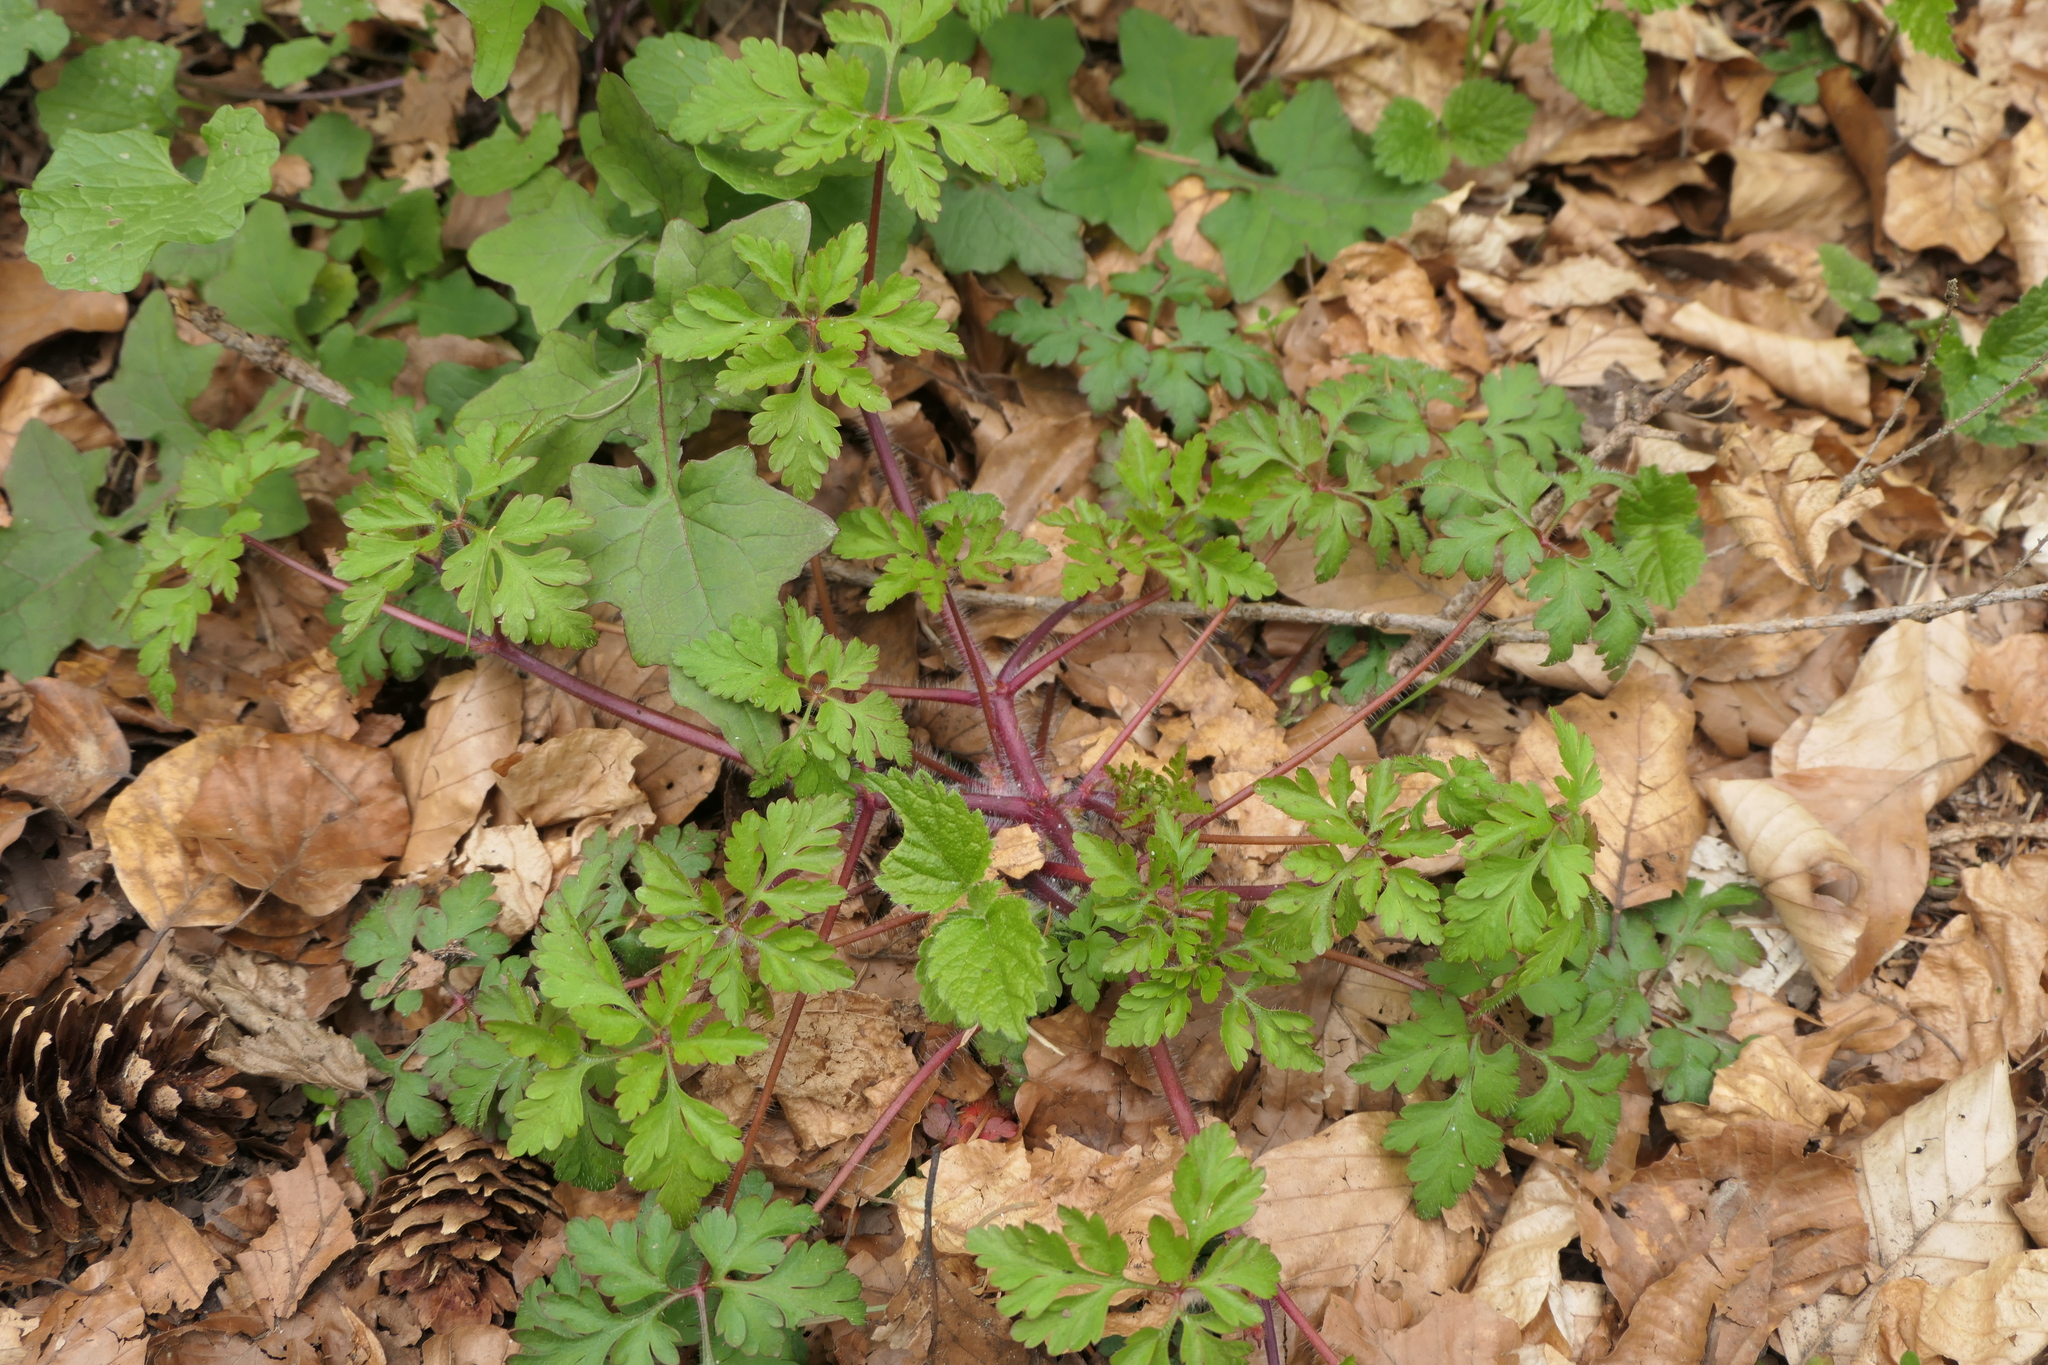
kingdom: Plantae
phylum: Tracheophyta
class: Magnoliopsida
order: Geraniales
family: Geraniaceae
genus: Geranium
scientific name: Geranium robertianum
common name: Herb-robert
